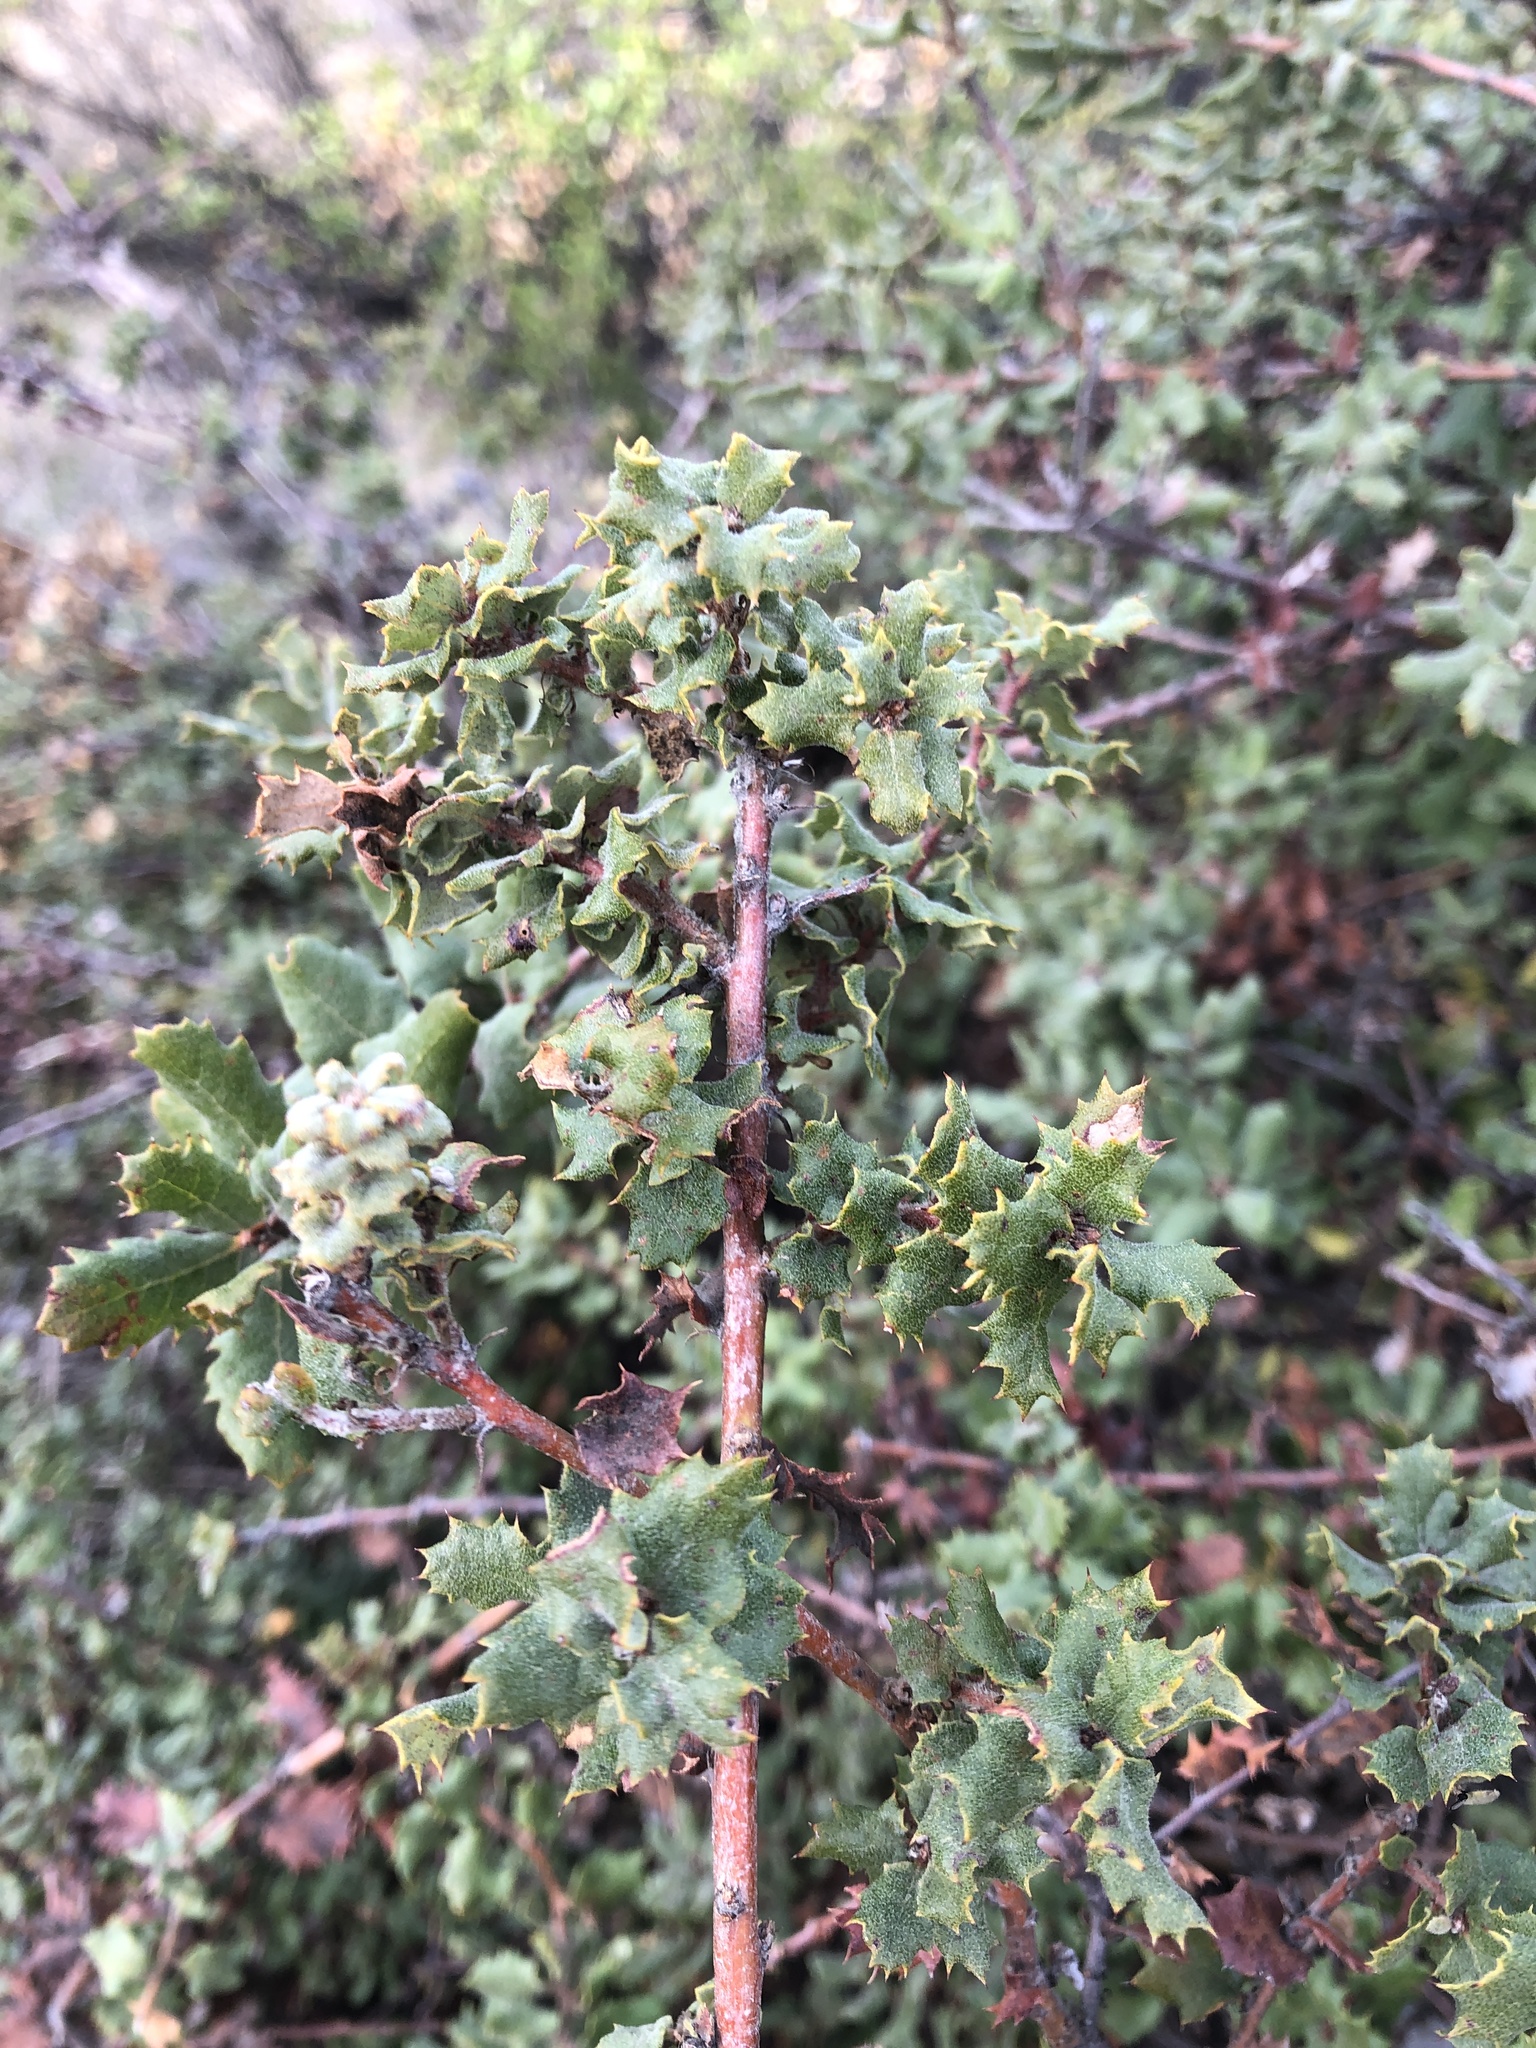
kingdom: Plantae
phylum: Tracheophyta
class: Magnoliopsida
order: Fagales
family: Fagaceae
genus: Quercus
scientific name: Quercus durata
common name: Leather oak
